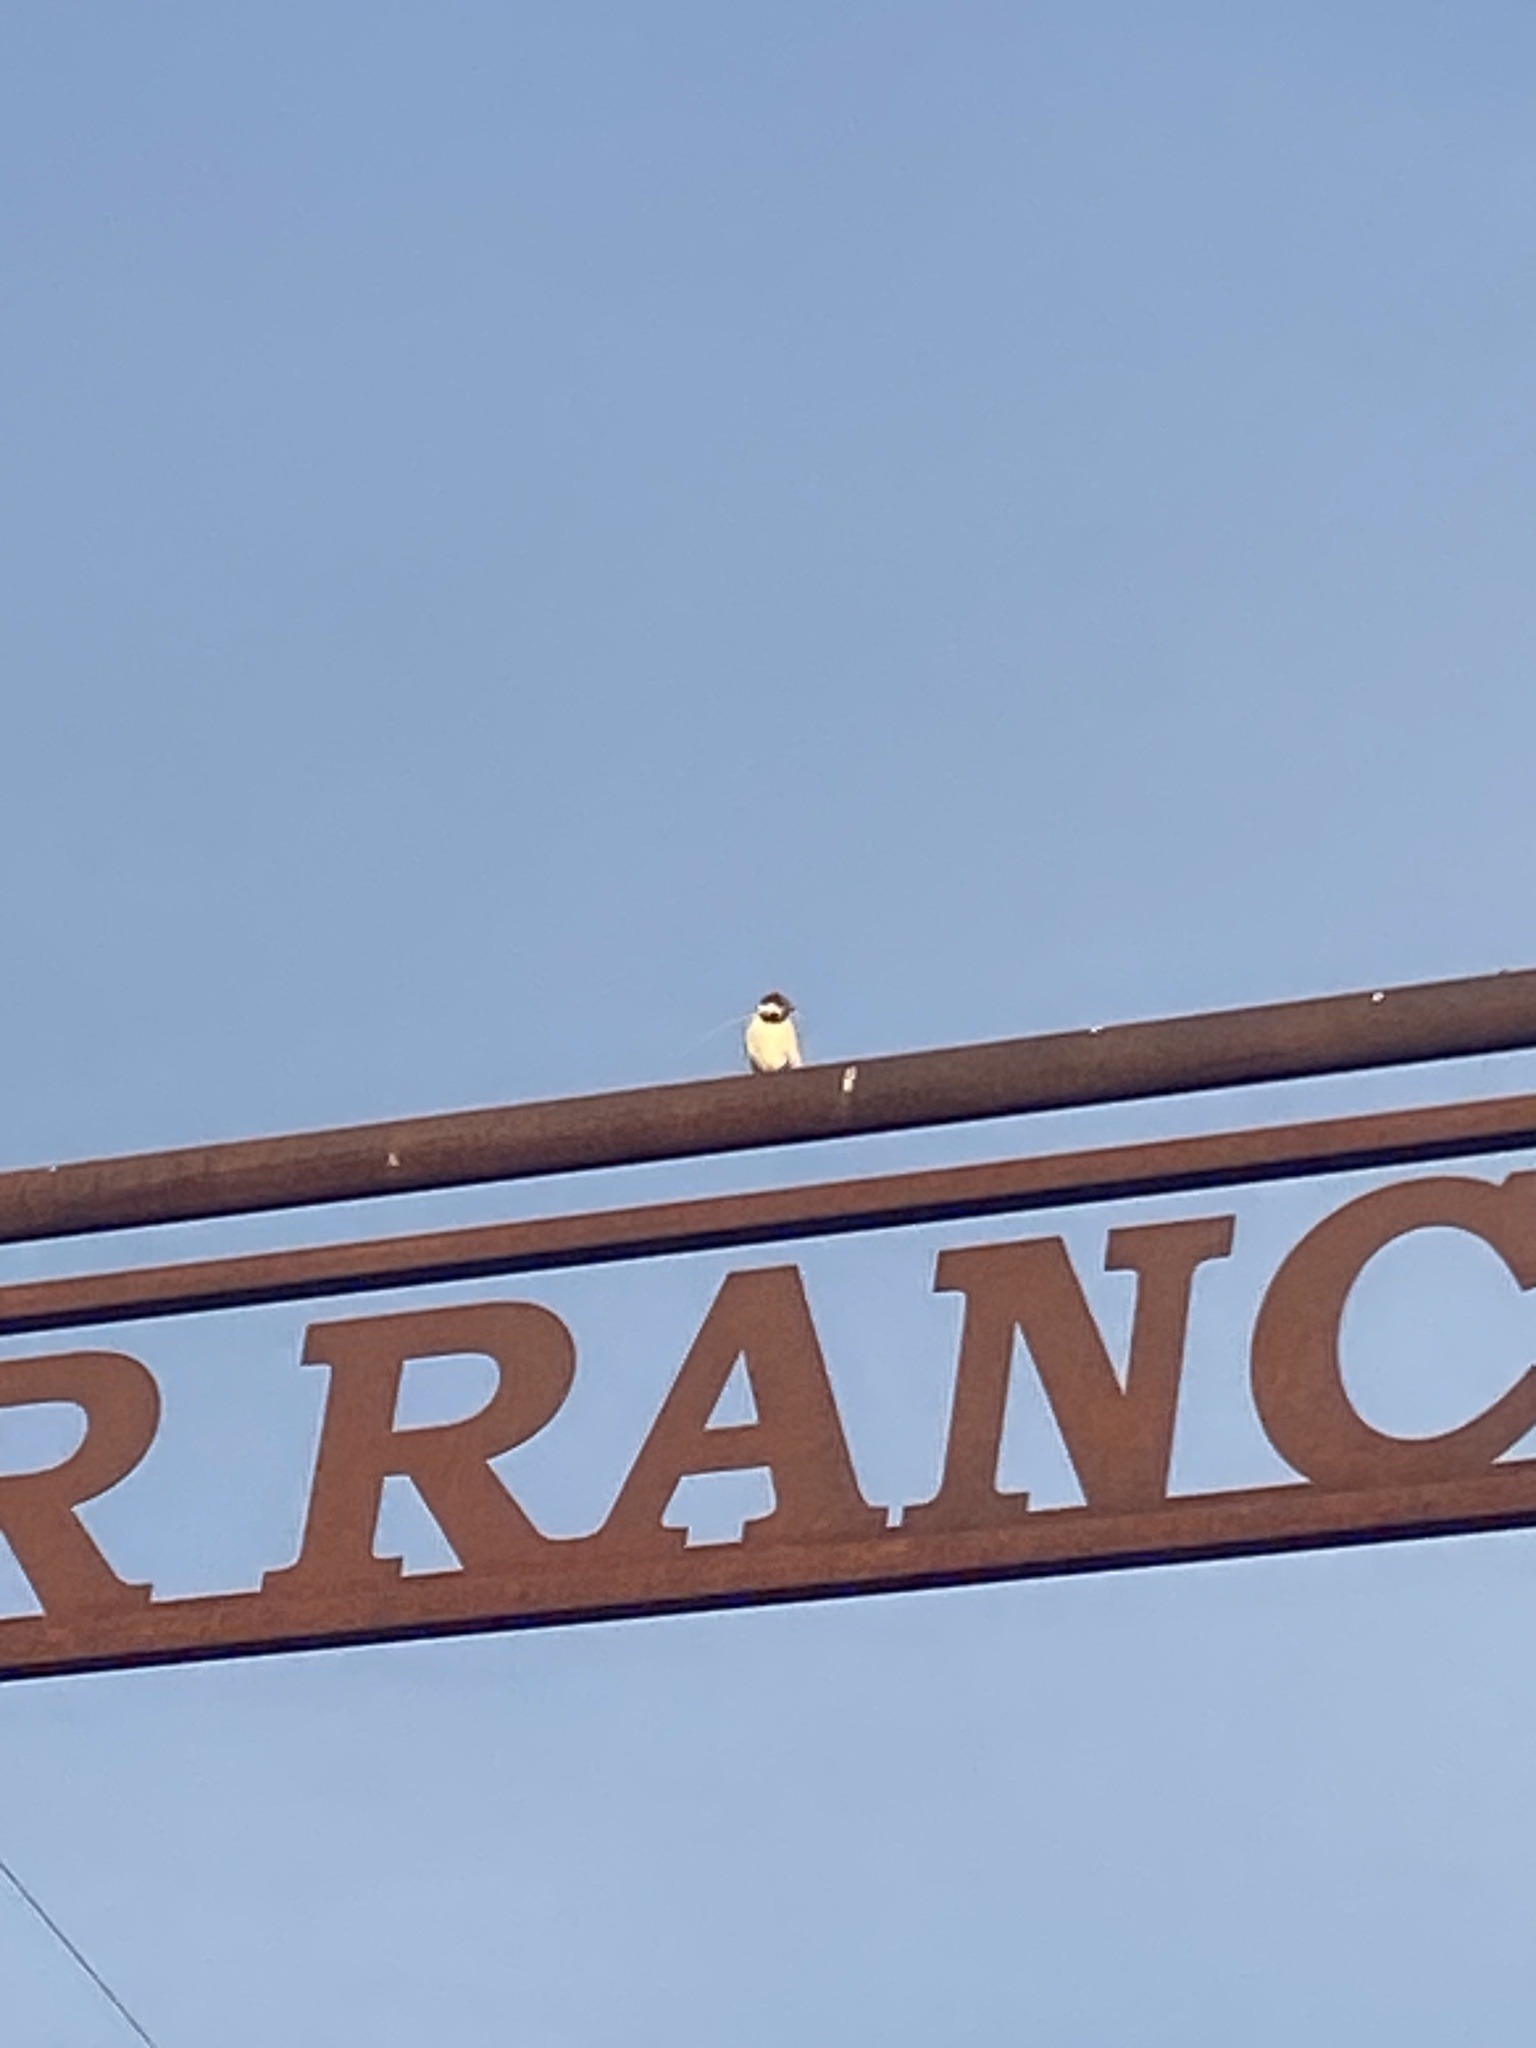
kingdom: Animalia
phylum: Chordata
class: Aves
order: Passeriformes
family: Passeridae
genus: Passer
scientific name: Passer domesticus
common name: House sparrow
